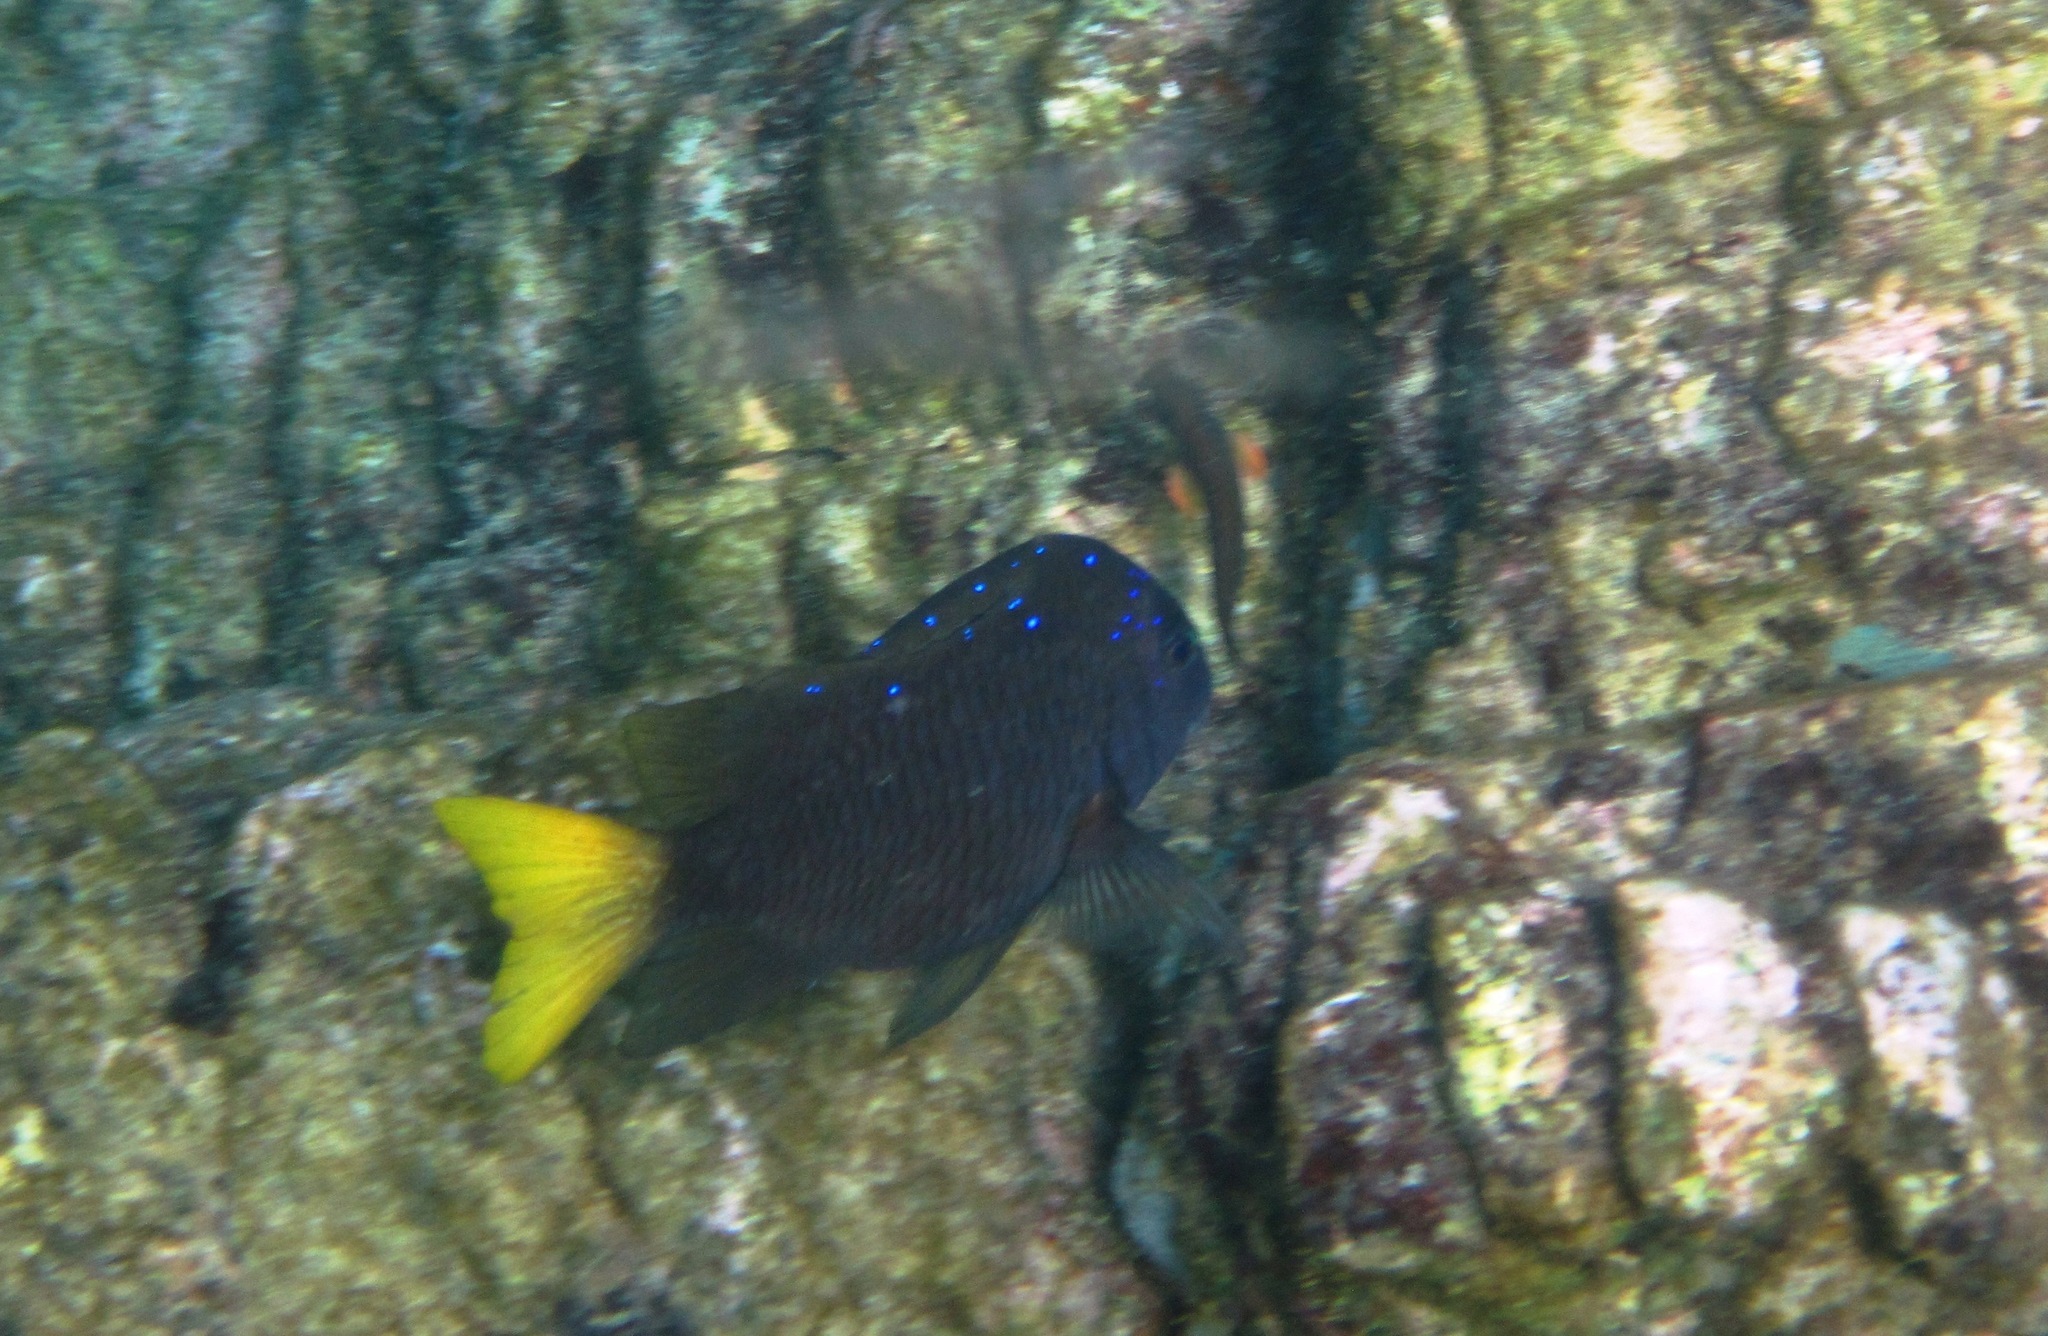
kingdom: Animalia
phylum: Chordata
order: Perciformes
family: Pomacentridae
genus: Microspathodon
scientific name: Microspathodon chrysurus
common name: Yellowtail damselfish
